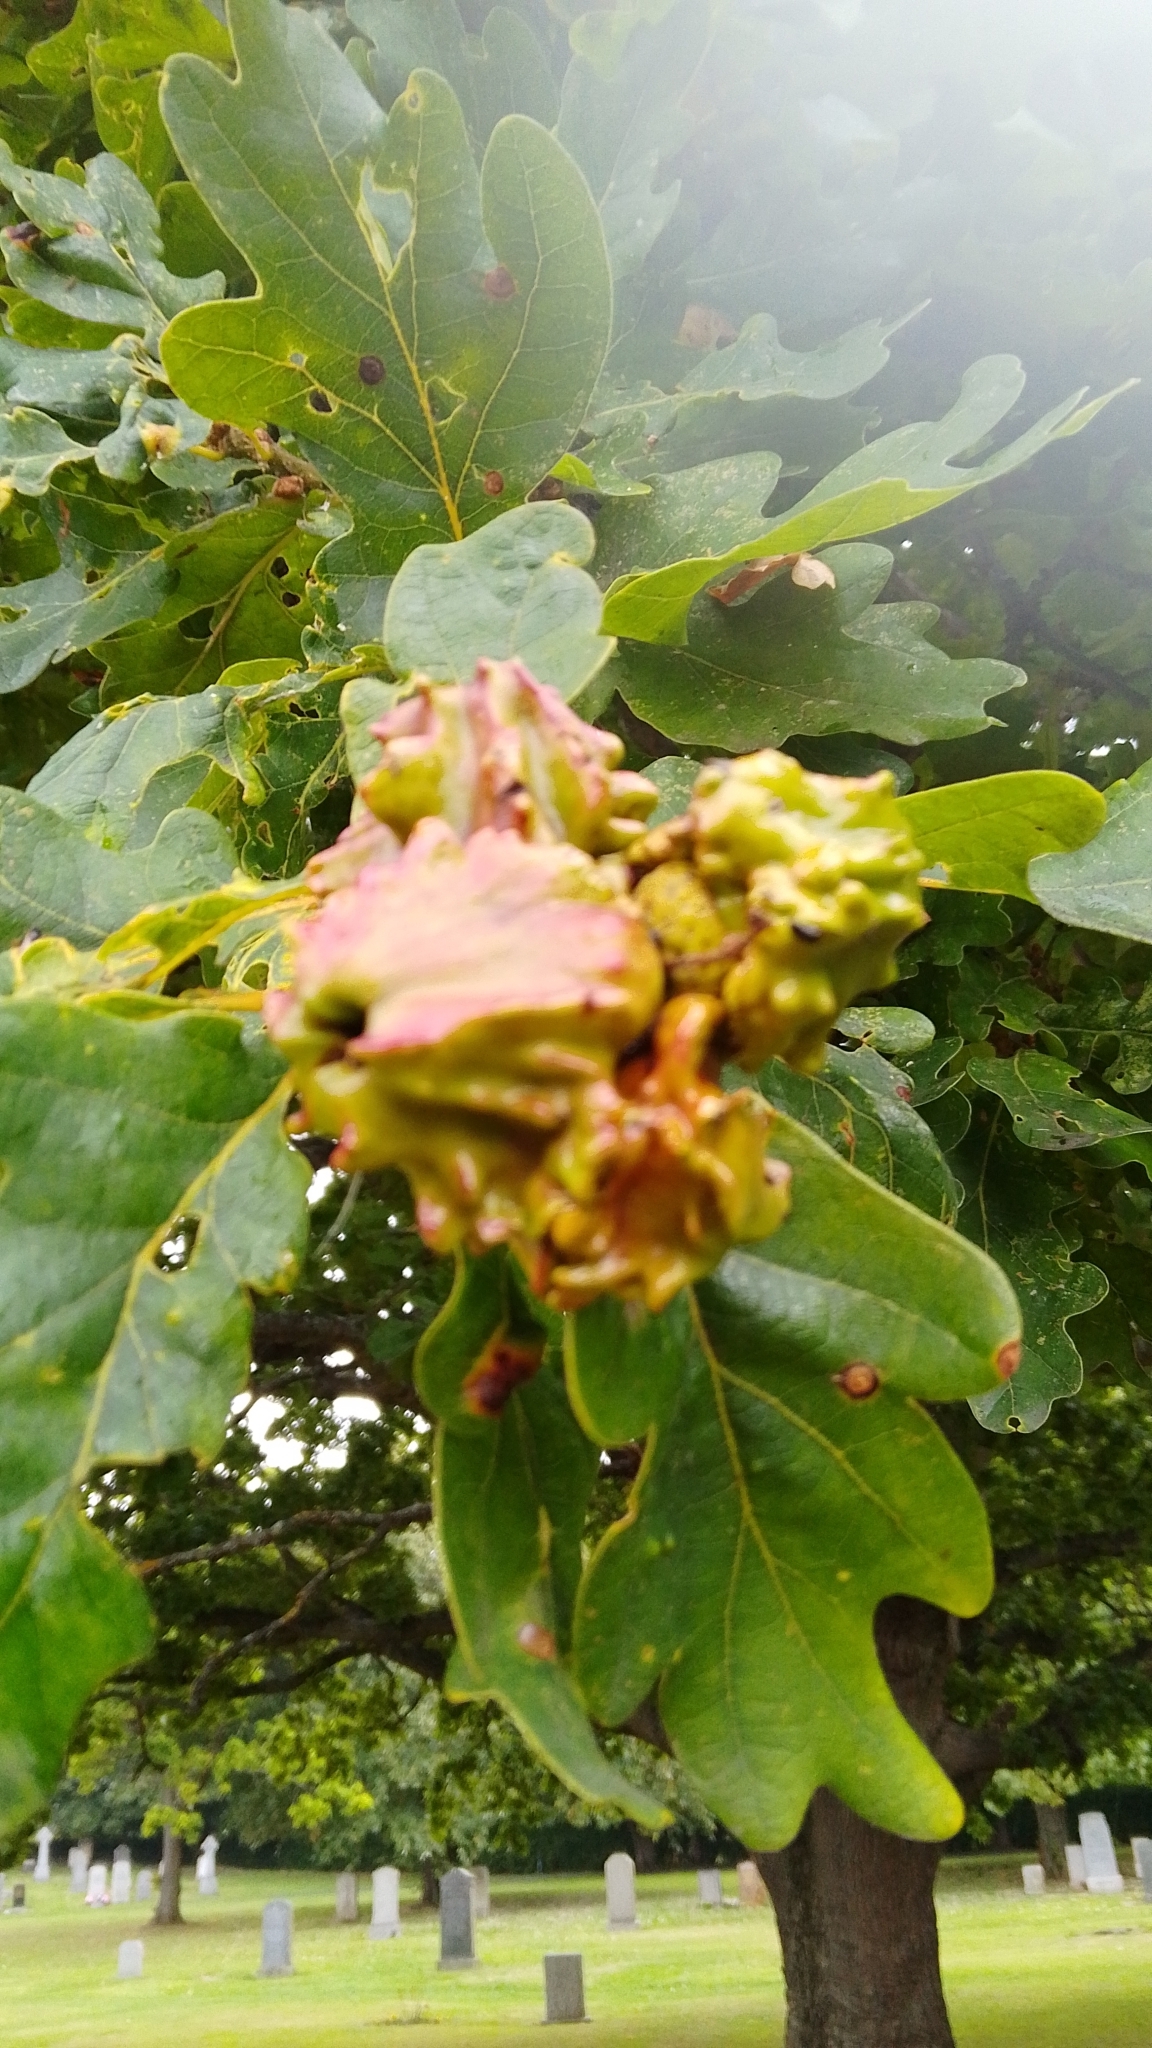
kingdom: Animalia
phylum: Arthropoda
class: Insecta
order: Hymenoptera
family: Cynipidae
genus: Andricus
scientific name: Andricus quercuscalicis
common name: Knopper gall
